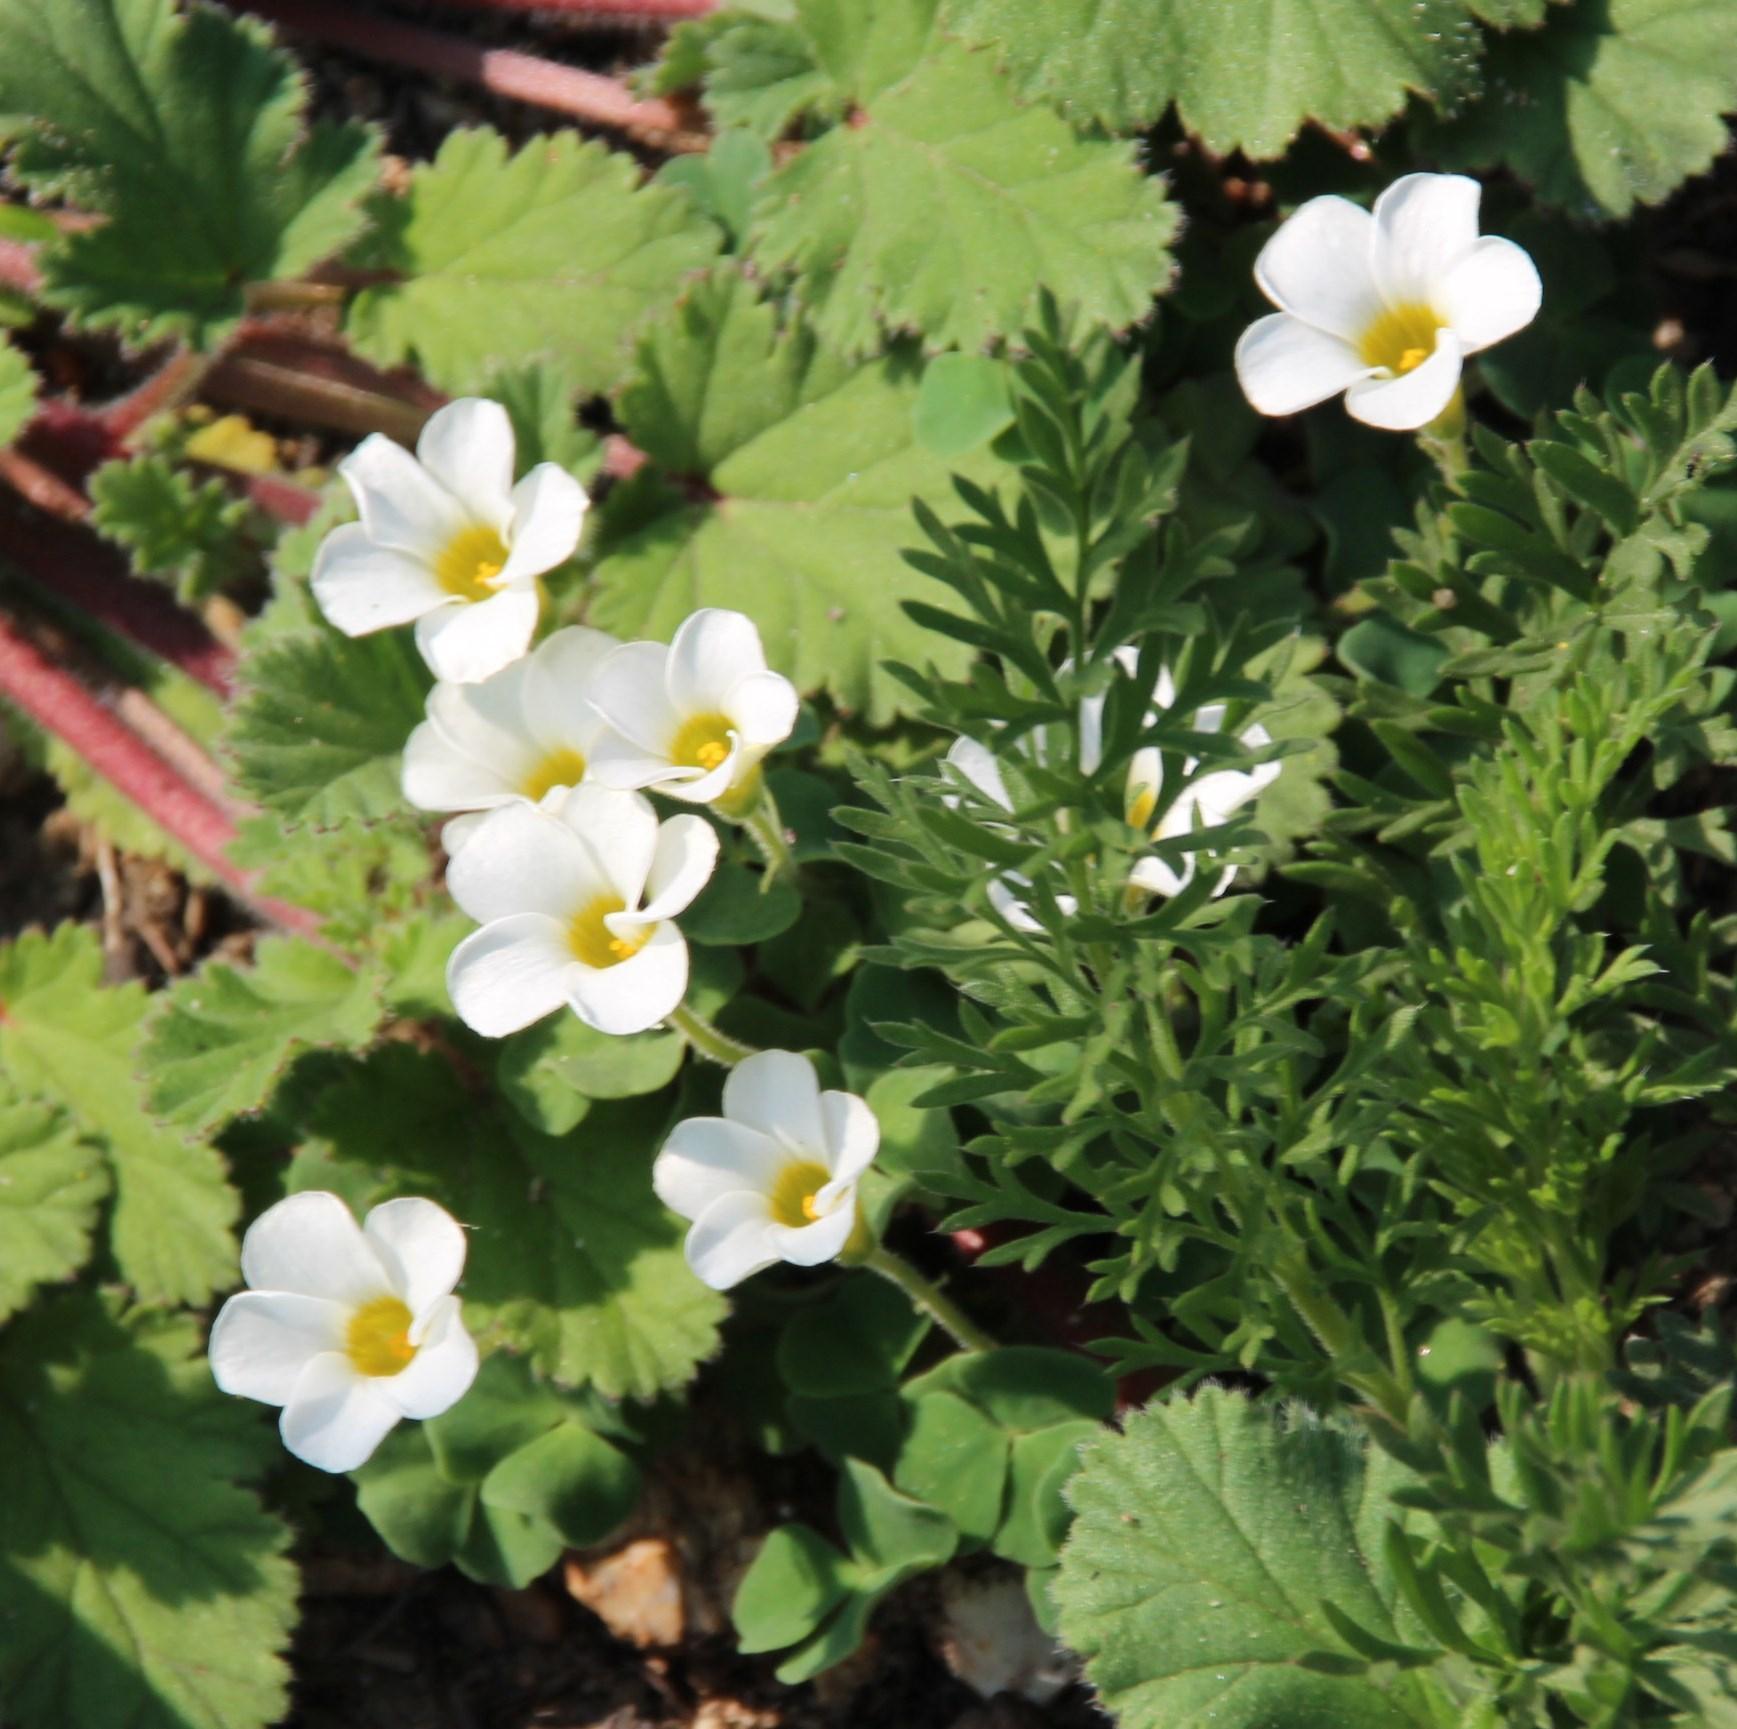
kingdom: Plantae
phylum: Tracheophyta
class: Magnoliopsida
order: Oxalidales
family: Oxalidaceae
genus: Oxalis
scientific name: Oxalis punctata
